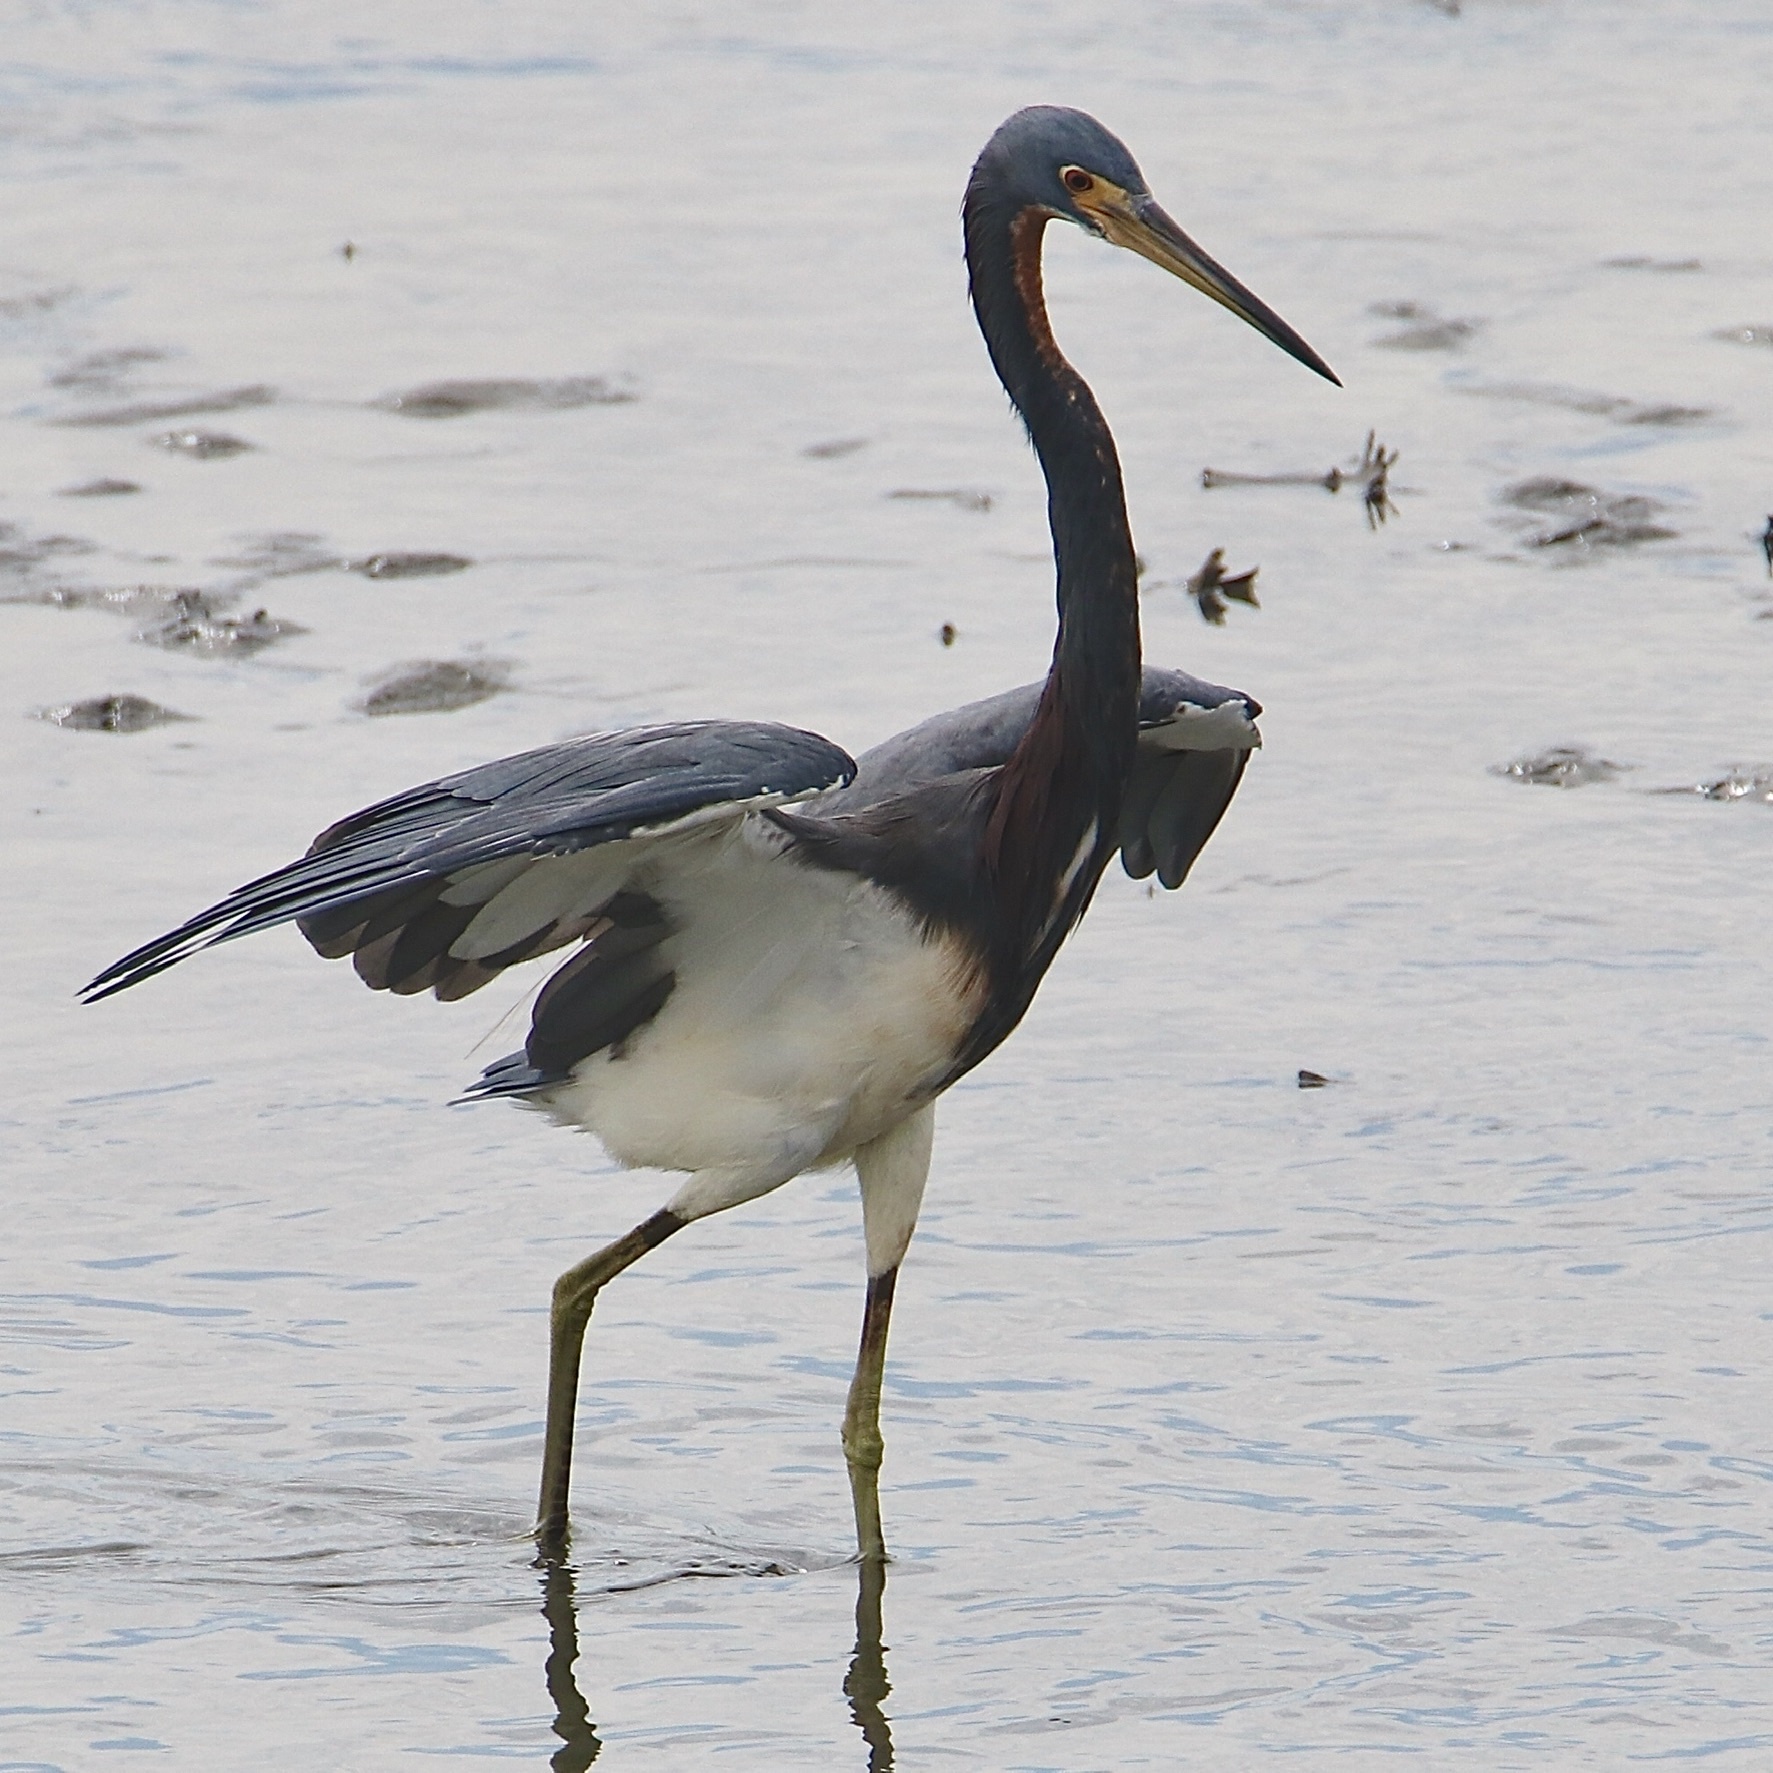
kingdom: Animalia
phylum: Chordata
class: Aves
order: Pelecaniformes
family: Ardeidae
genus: Egretta
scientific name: Egretta tricolor
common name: Tricolored heron
